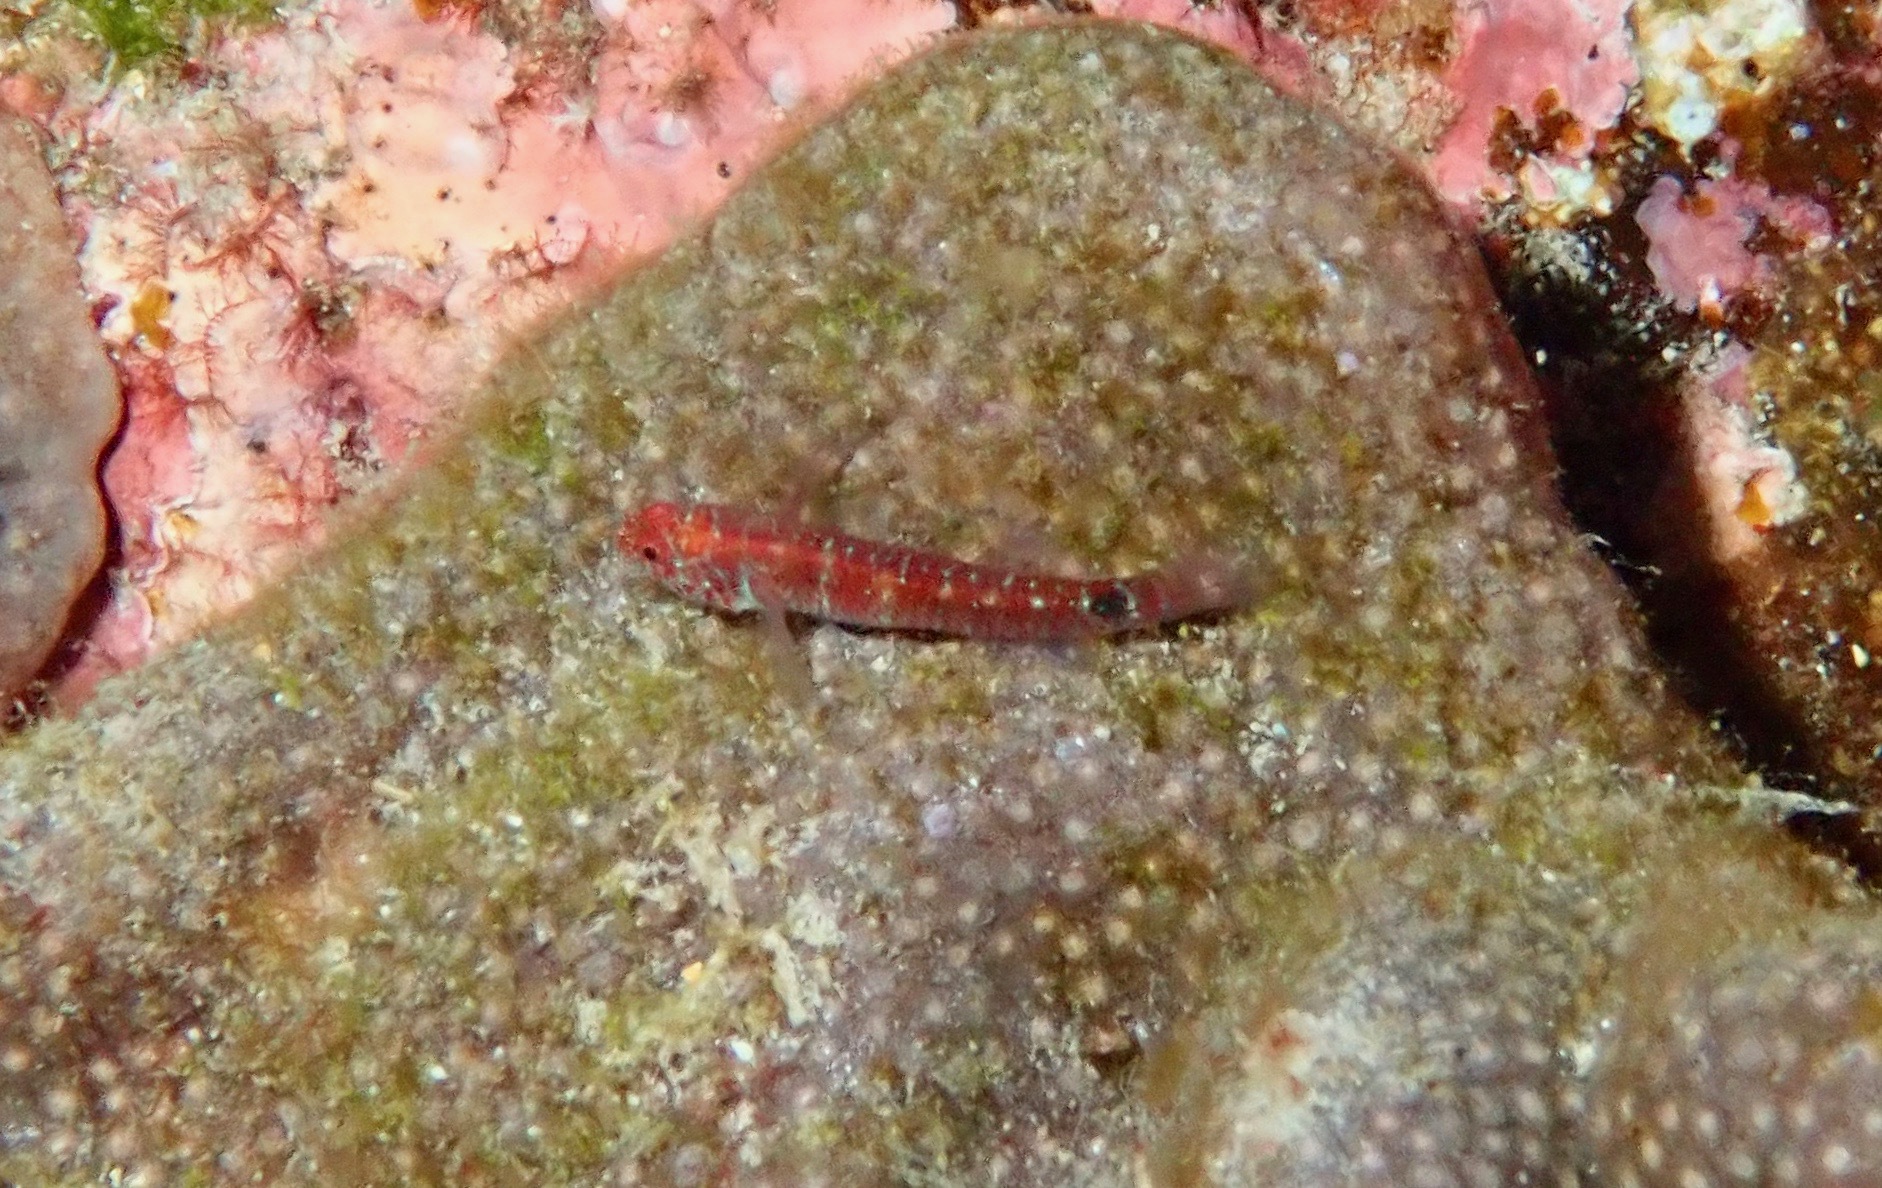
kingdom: Animalia
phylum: Chordata
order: Perciformes
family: Gobiidae
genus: Eviota
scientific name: Eviota hoesei
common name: Doug's eviota
